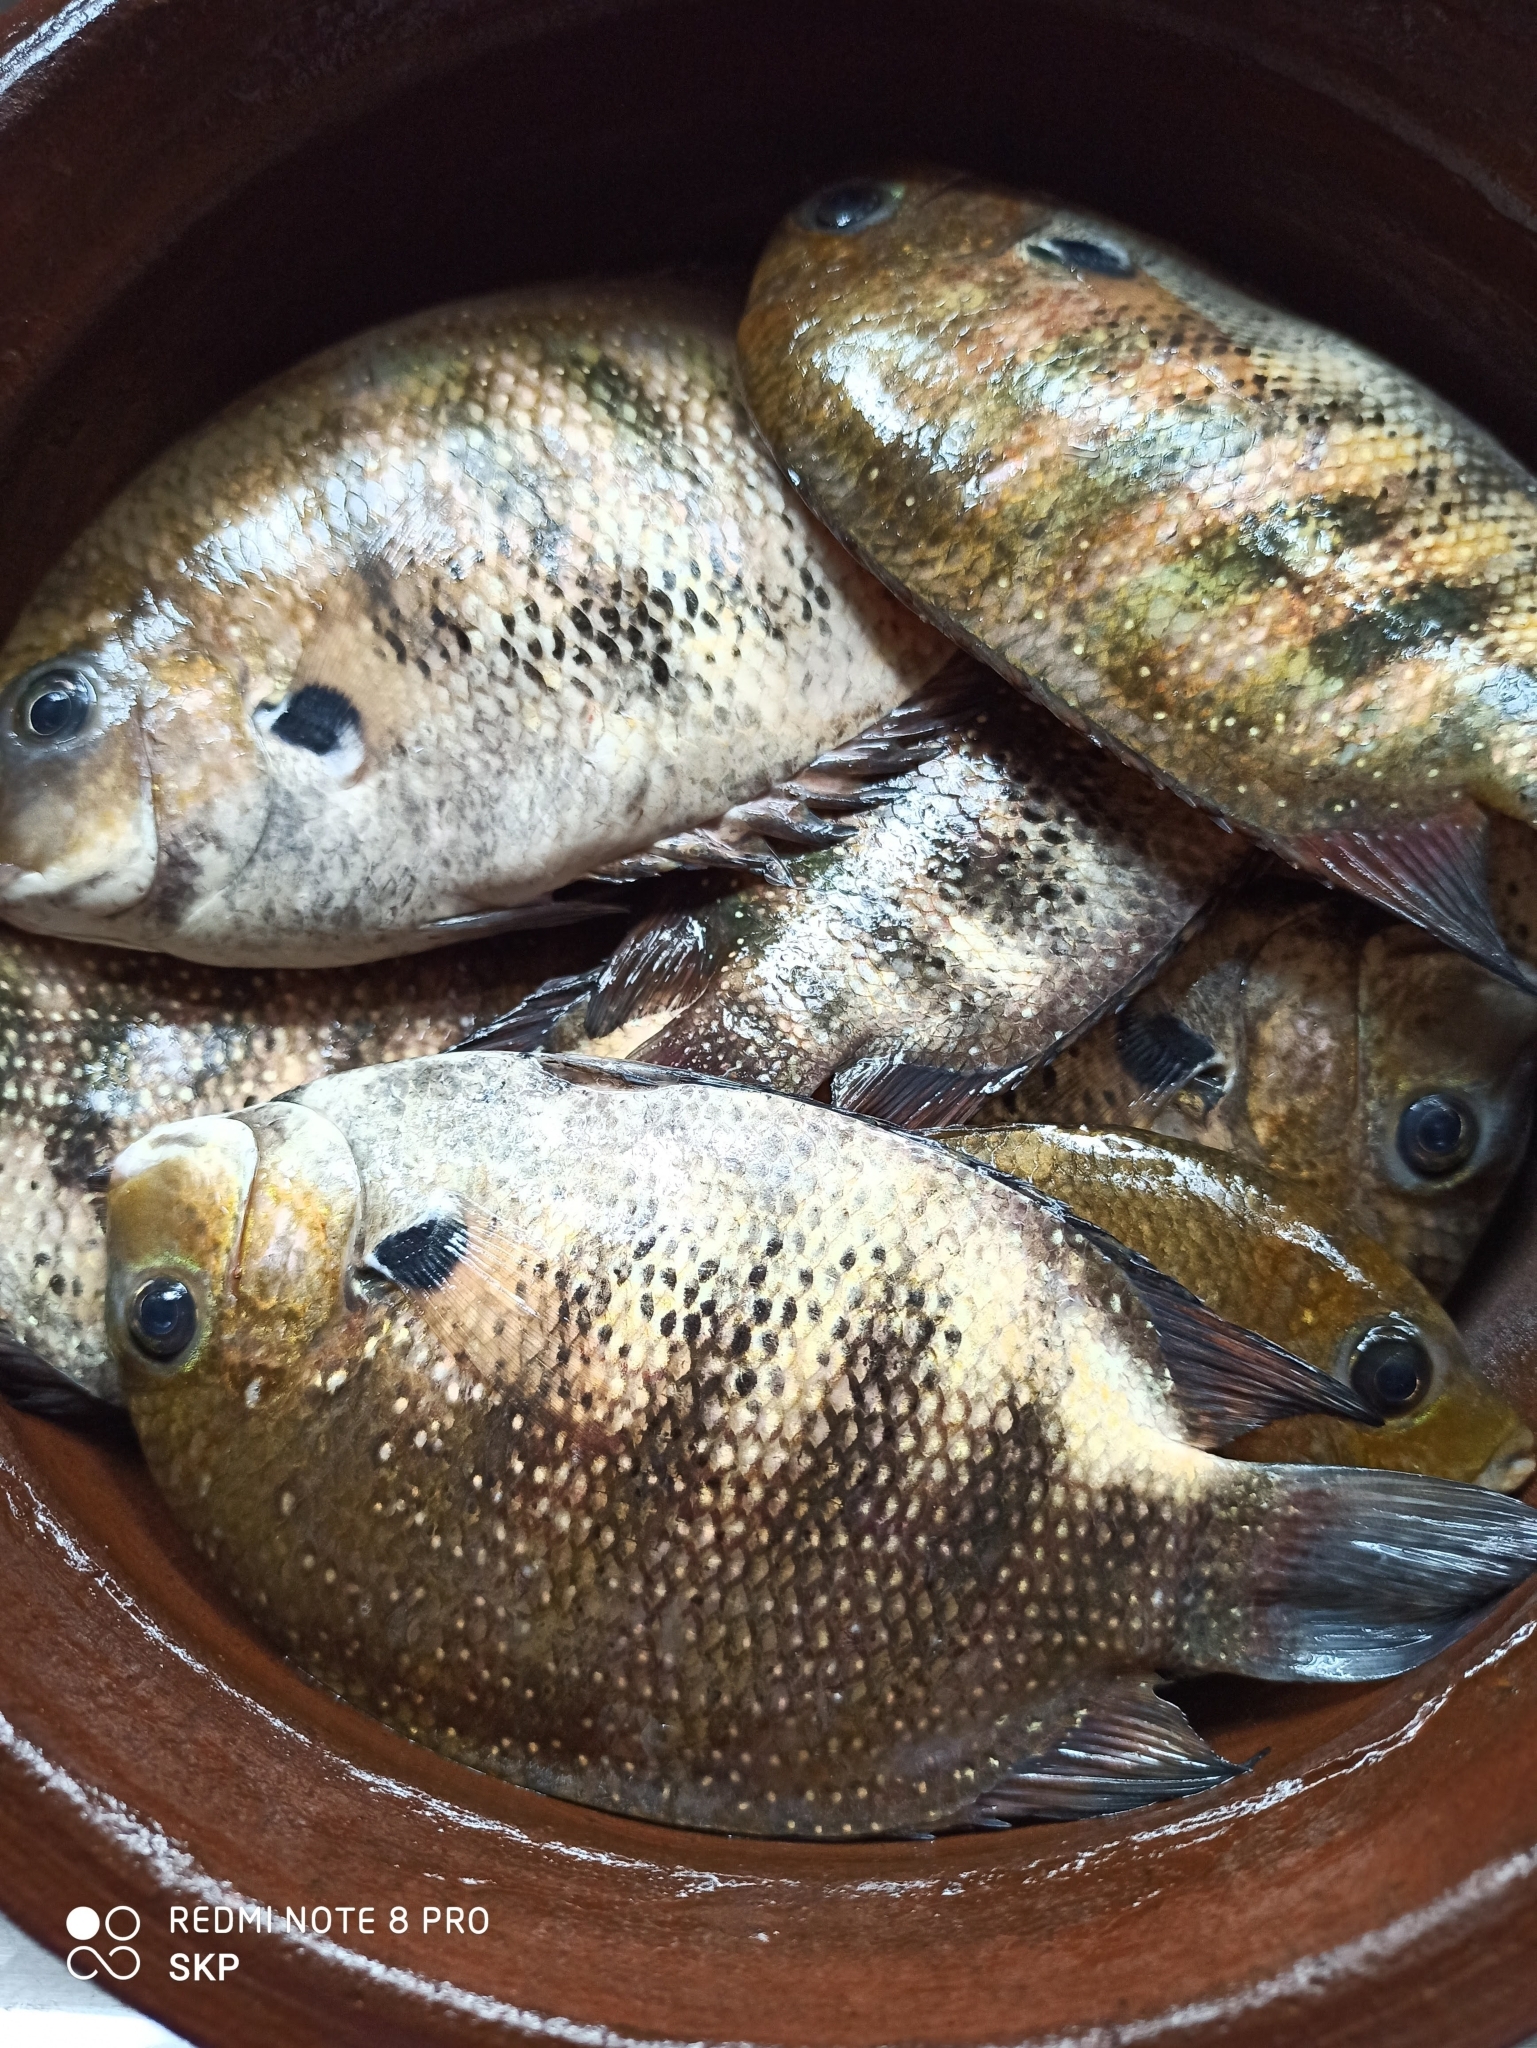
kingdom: Animalia
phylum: Chordata
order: Perciformes
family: Cichlidae
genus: Etroplus
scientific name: Etroplus suratensis
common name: Green chromide
